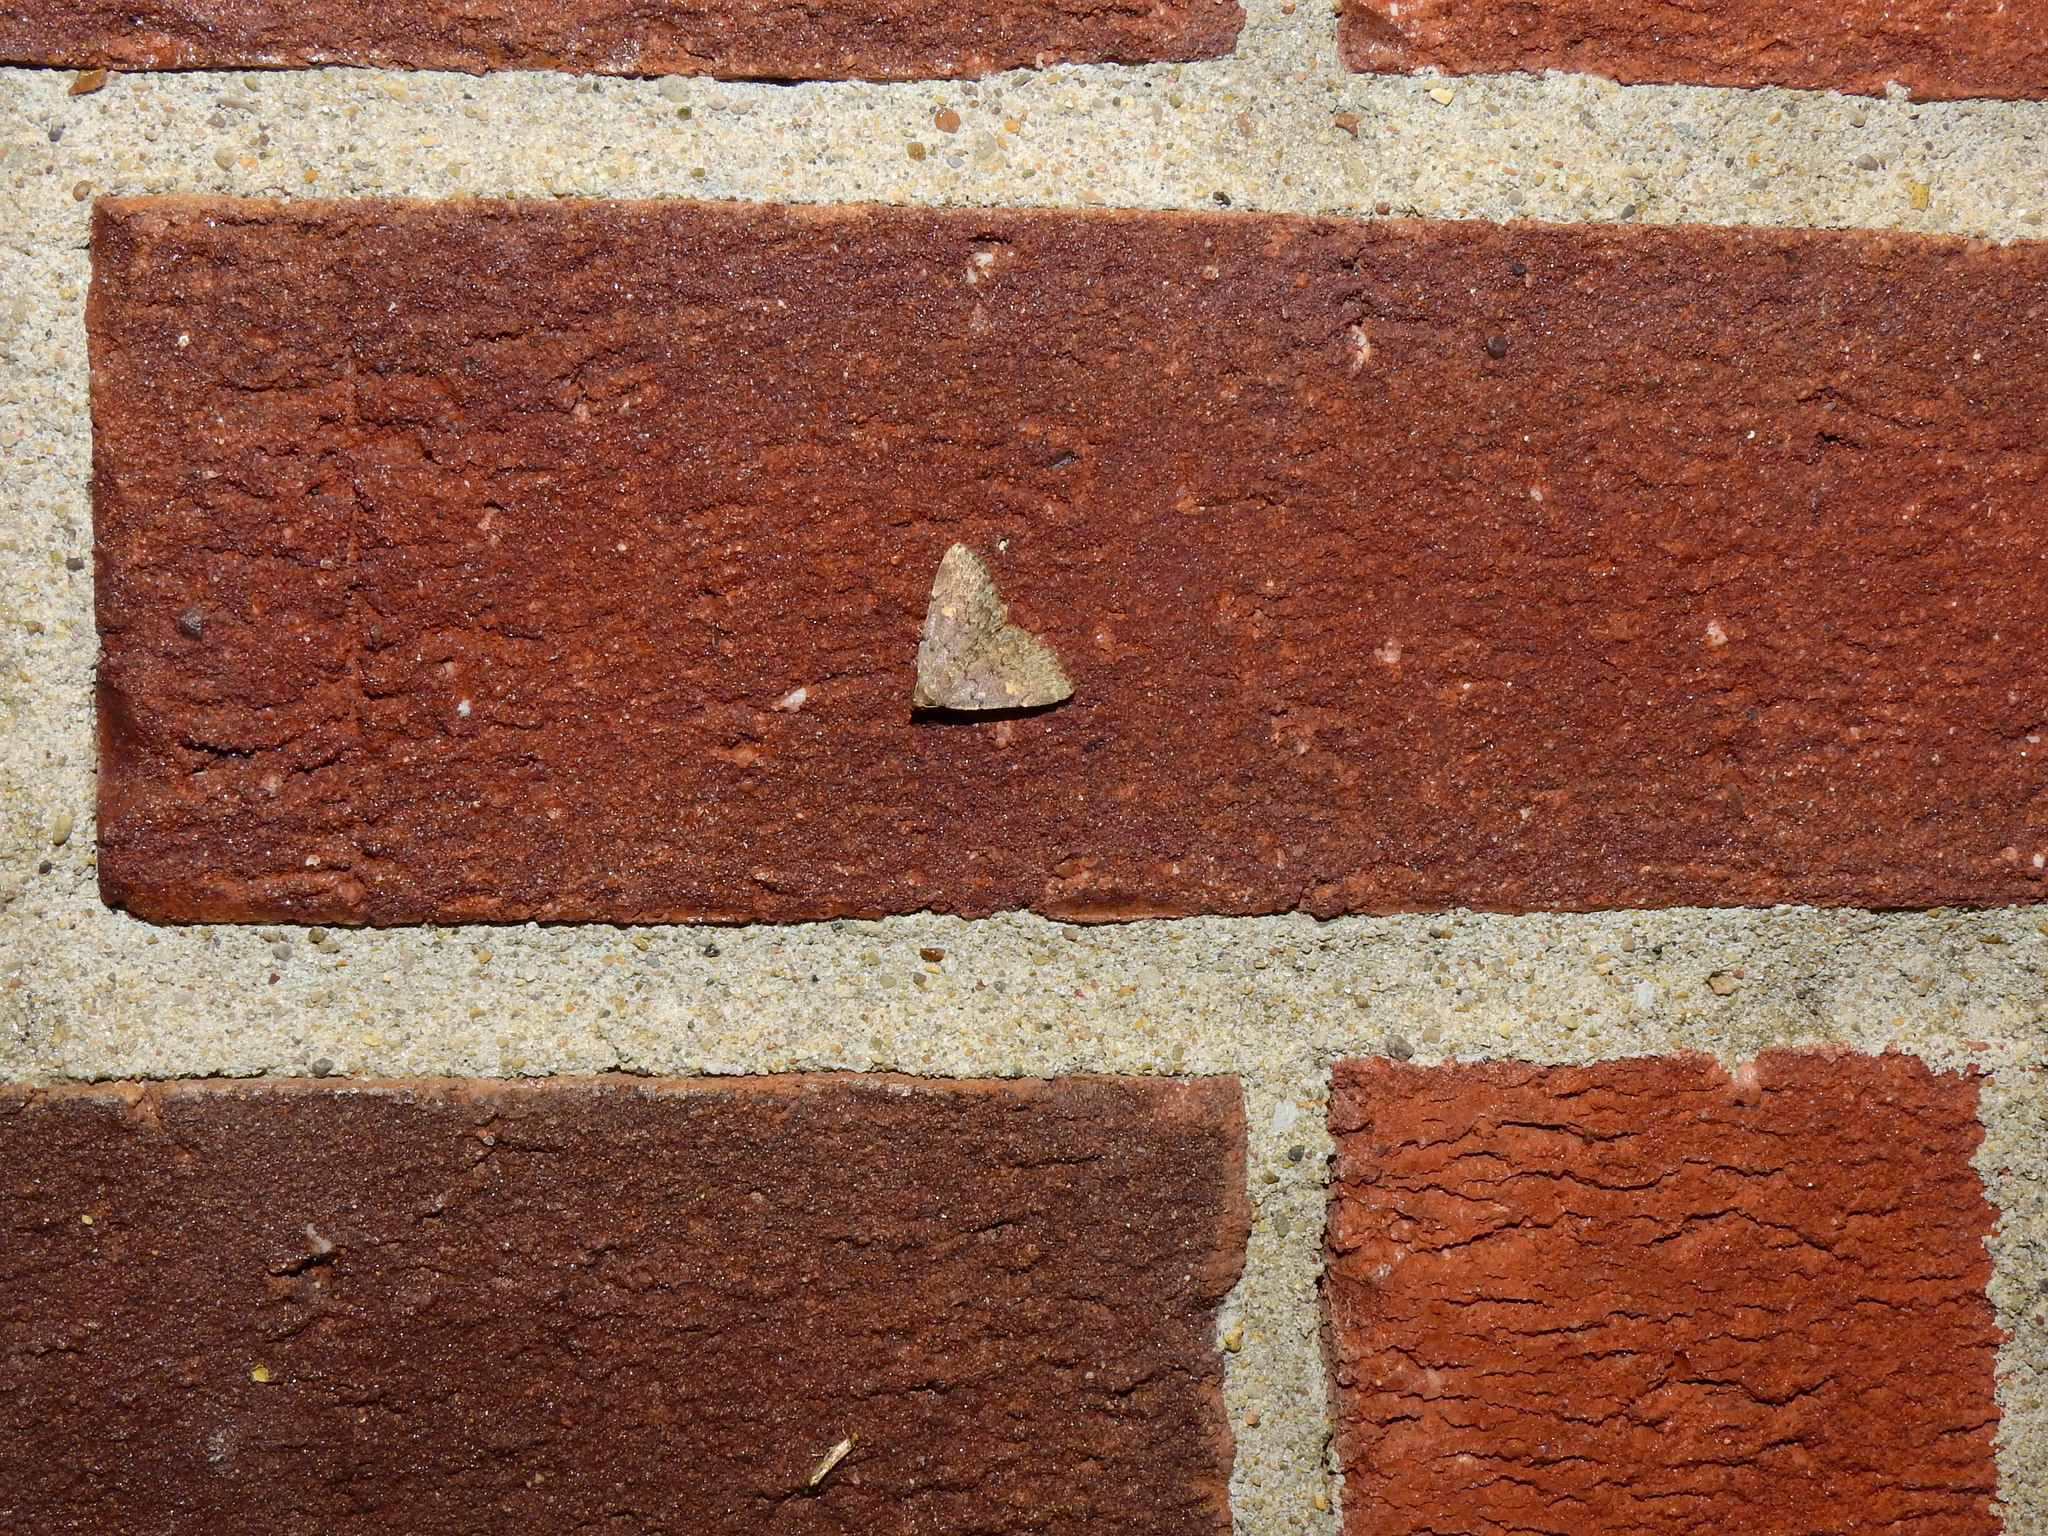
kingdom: Animalia
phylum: Arthropoda
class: Insecta
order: Lepidoptera
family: Erebidae
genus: Idia
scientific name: Idia aemula
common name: Common idia moth
